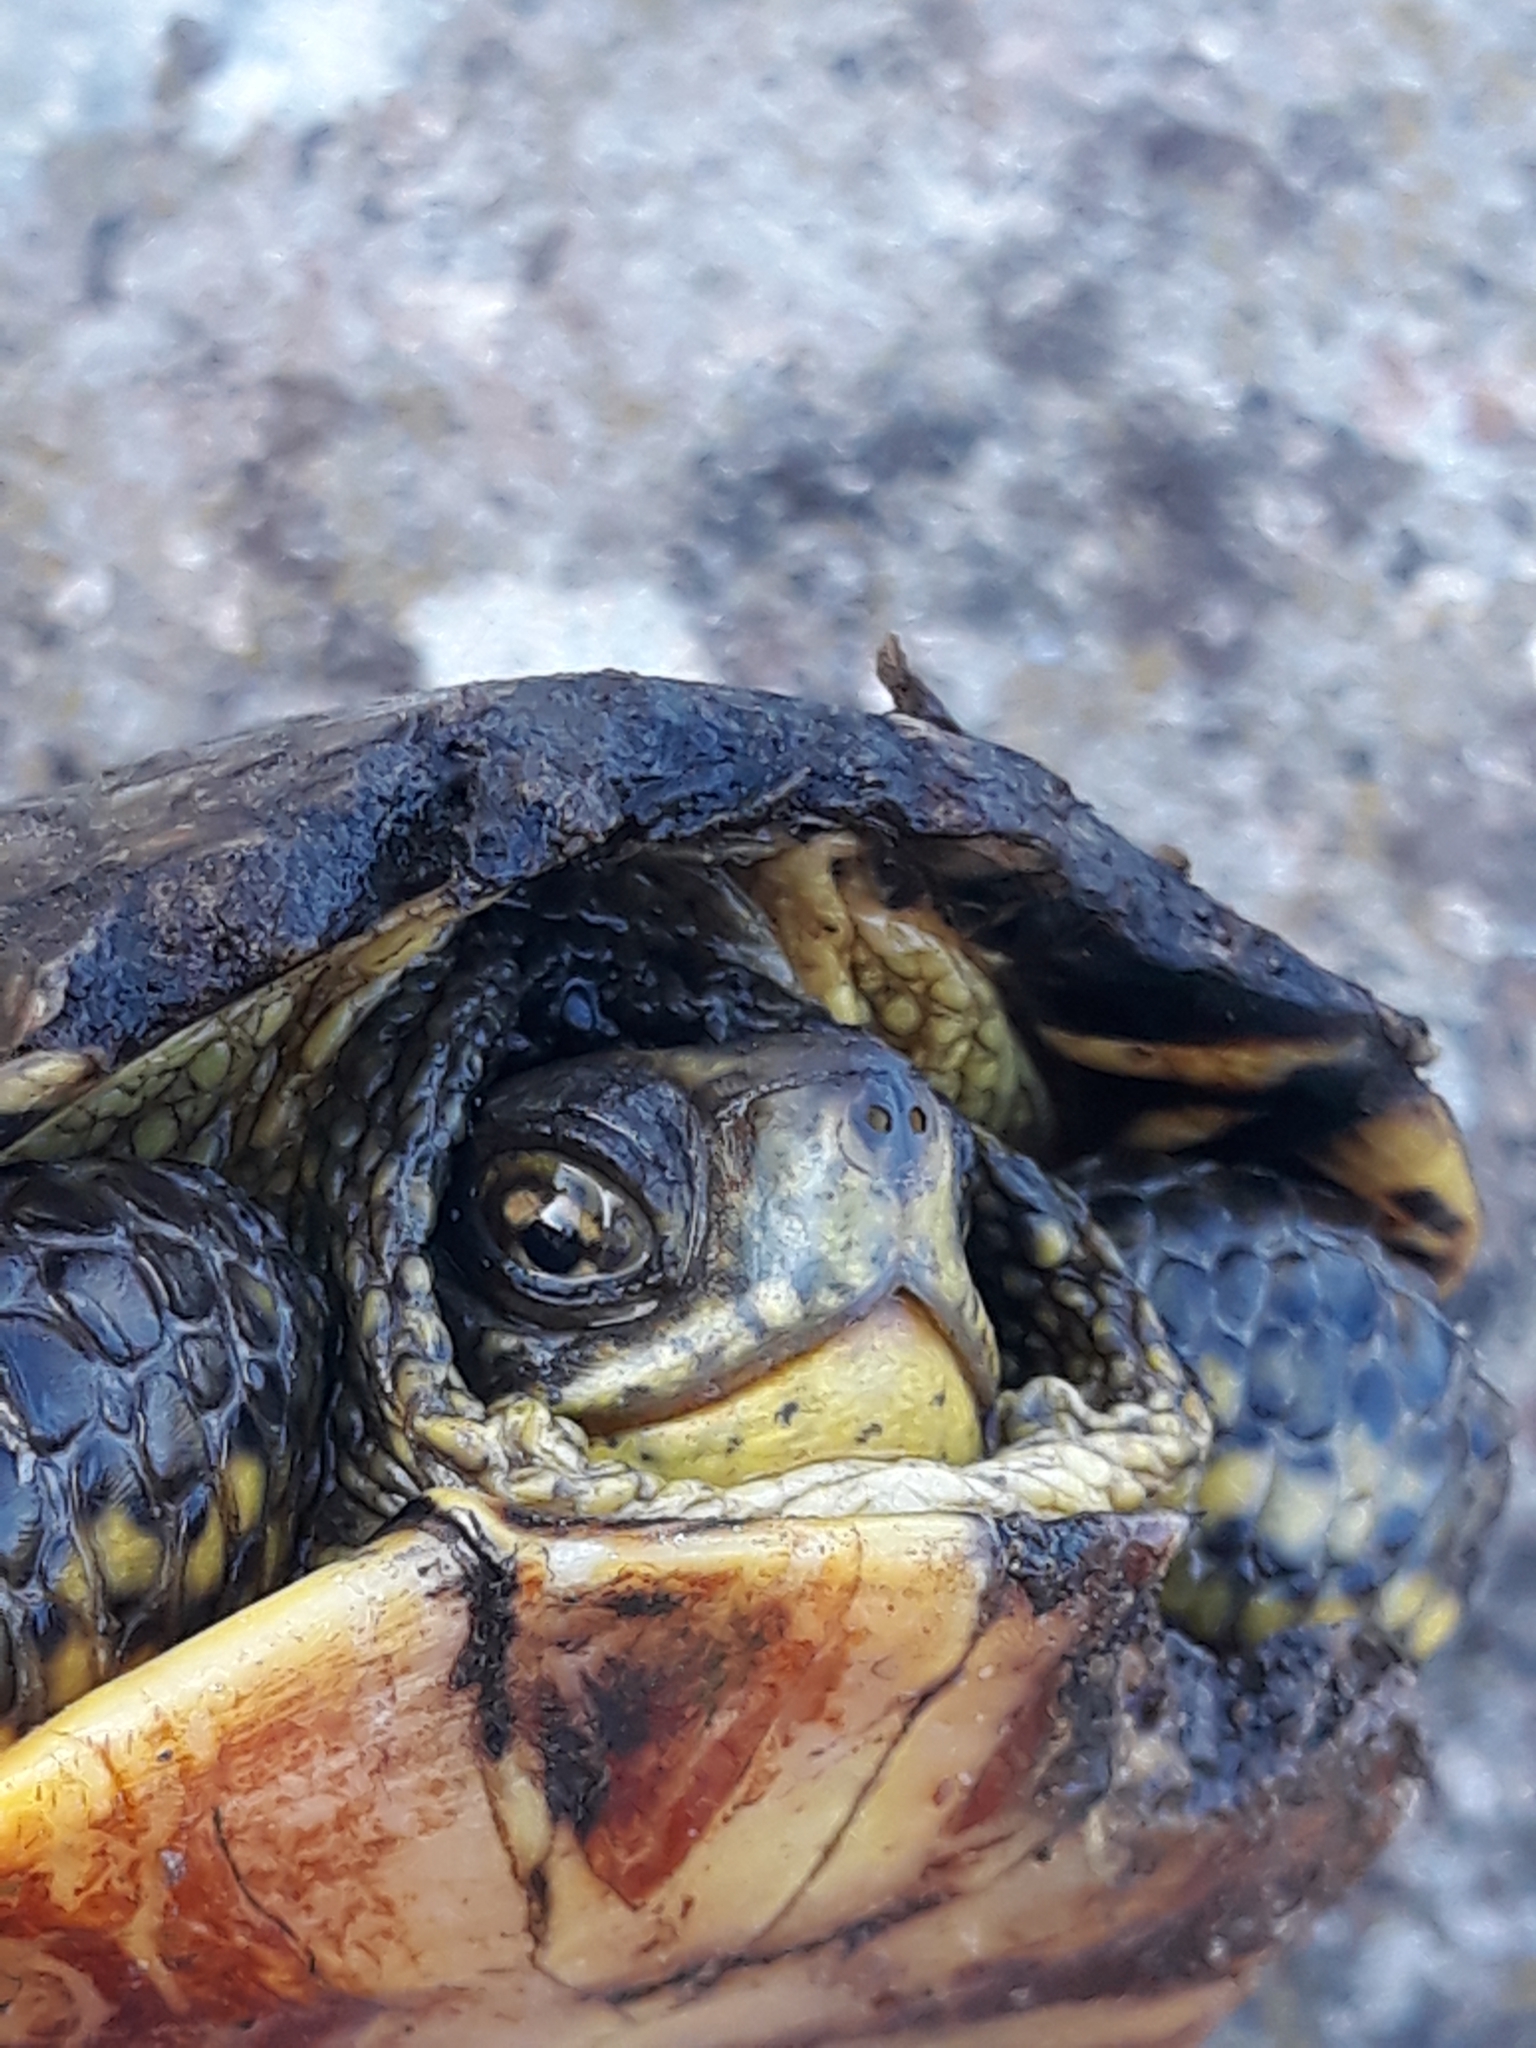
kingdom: Animalia
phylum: Chordata
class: Testudines
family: Emydidae
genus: Emys
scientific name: Emys orbicularis
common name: European pond turtle
